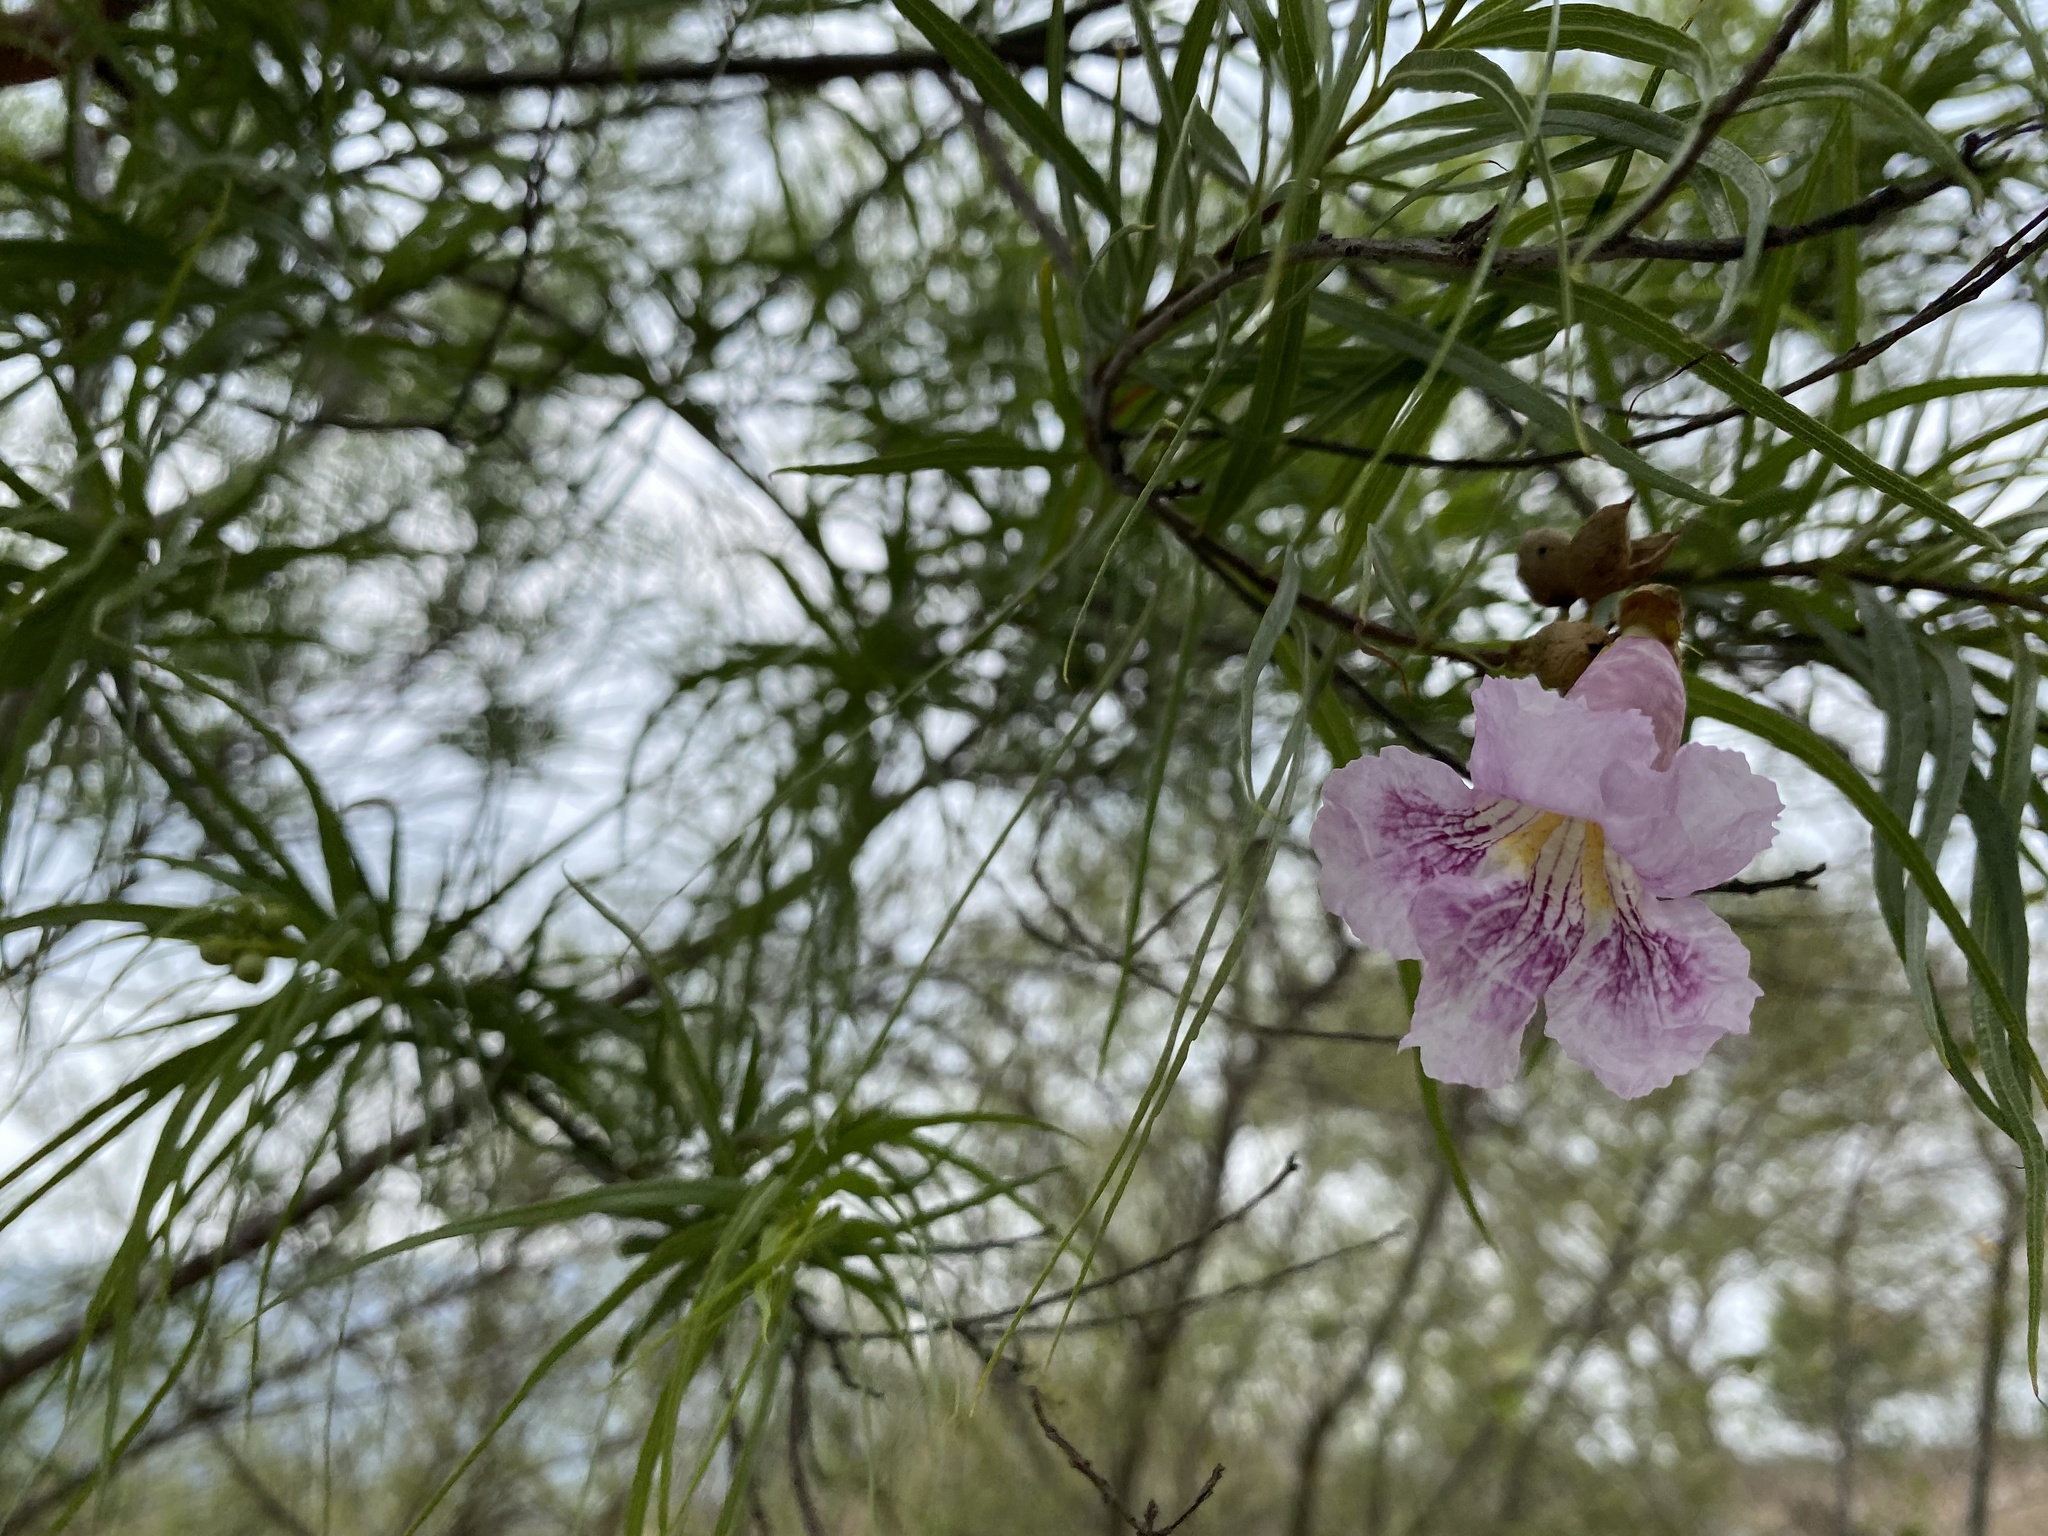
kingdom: Plantae
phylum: Tracheophyta
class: Magnoliopsida
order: Lamiales
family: Bignoniaceae
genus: Chilopsis
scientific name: Chilopsis linearis
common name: Desert-willow
